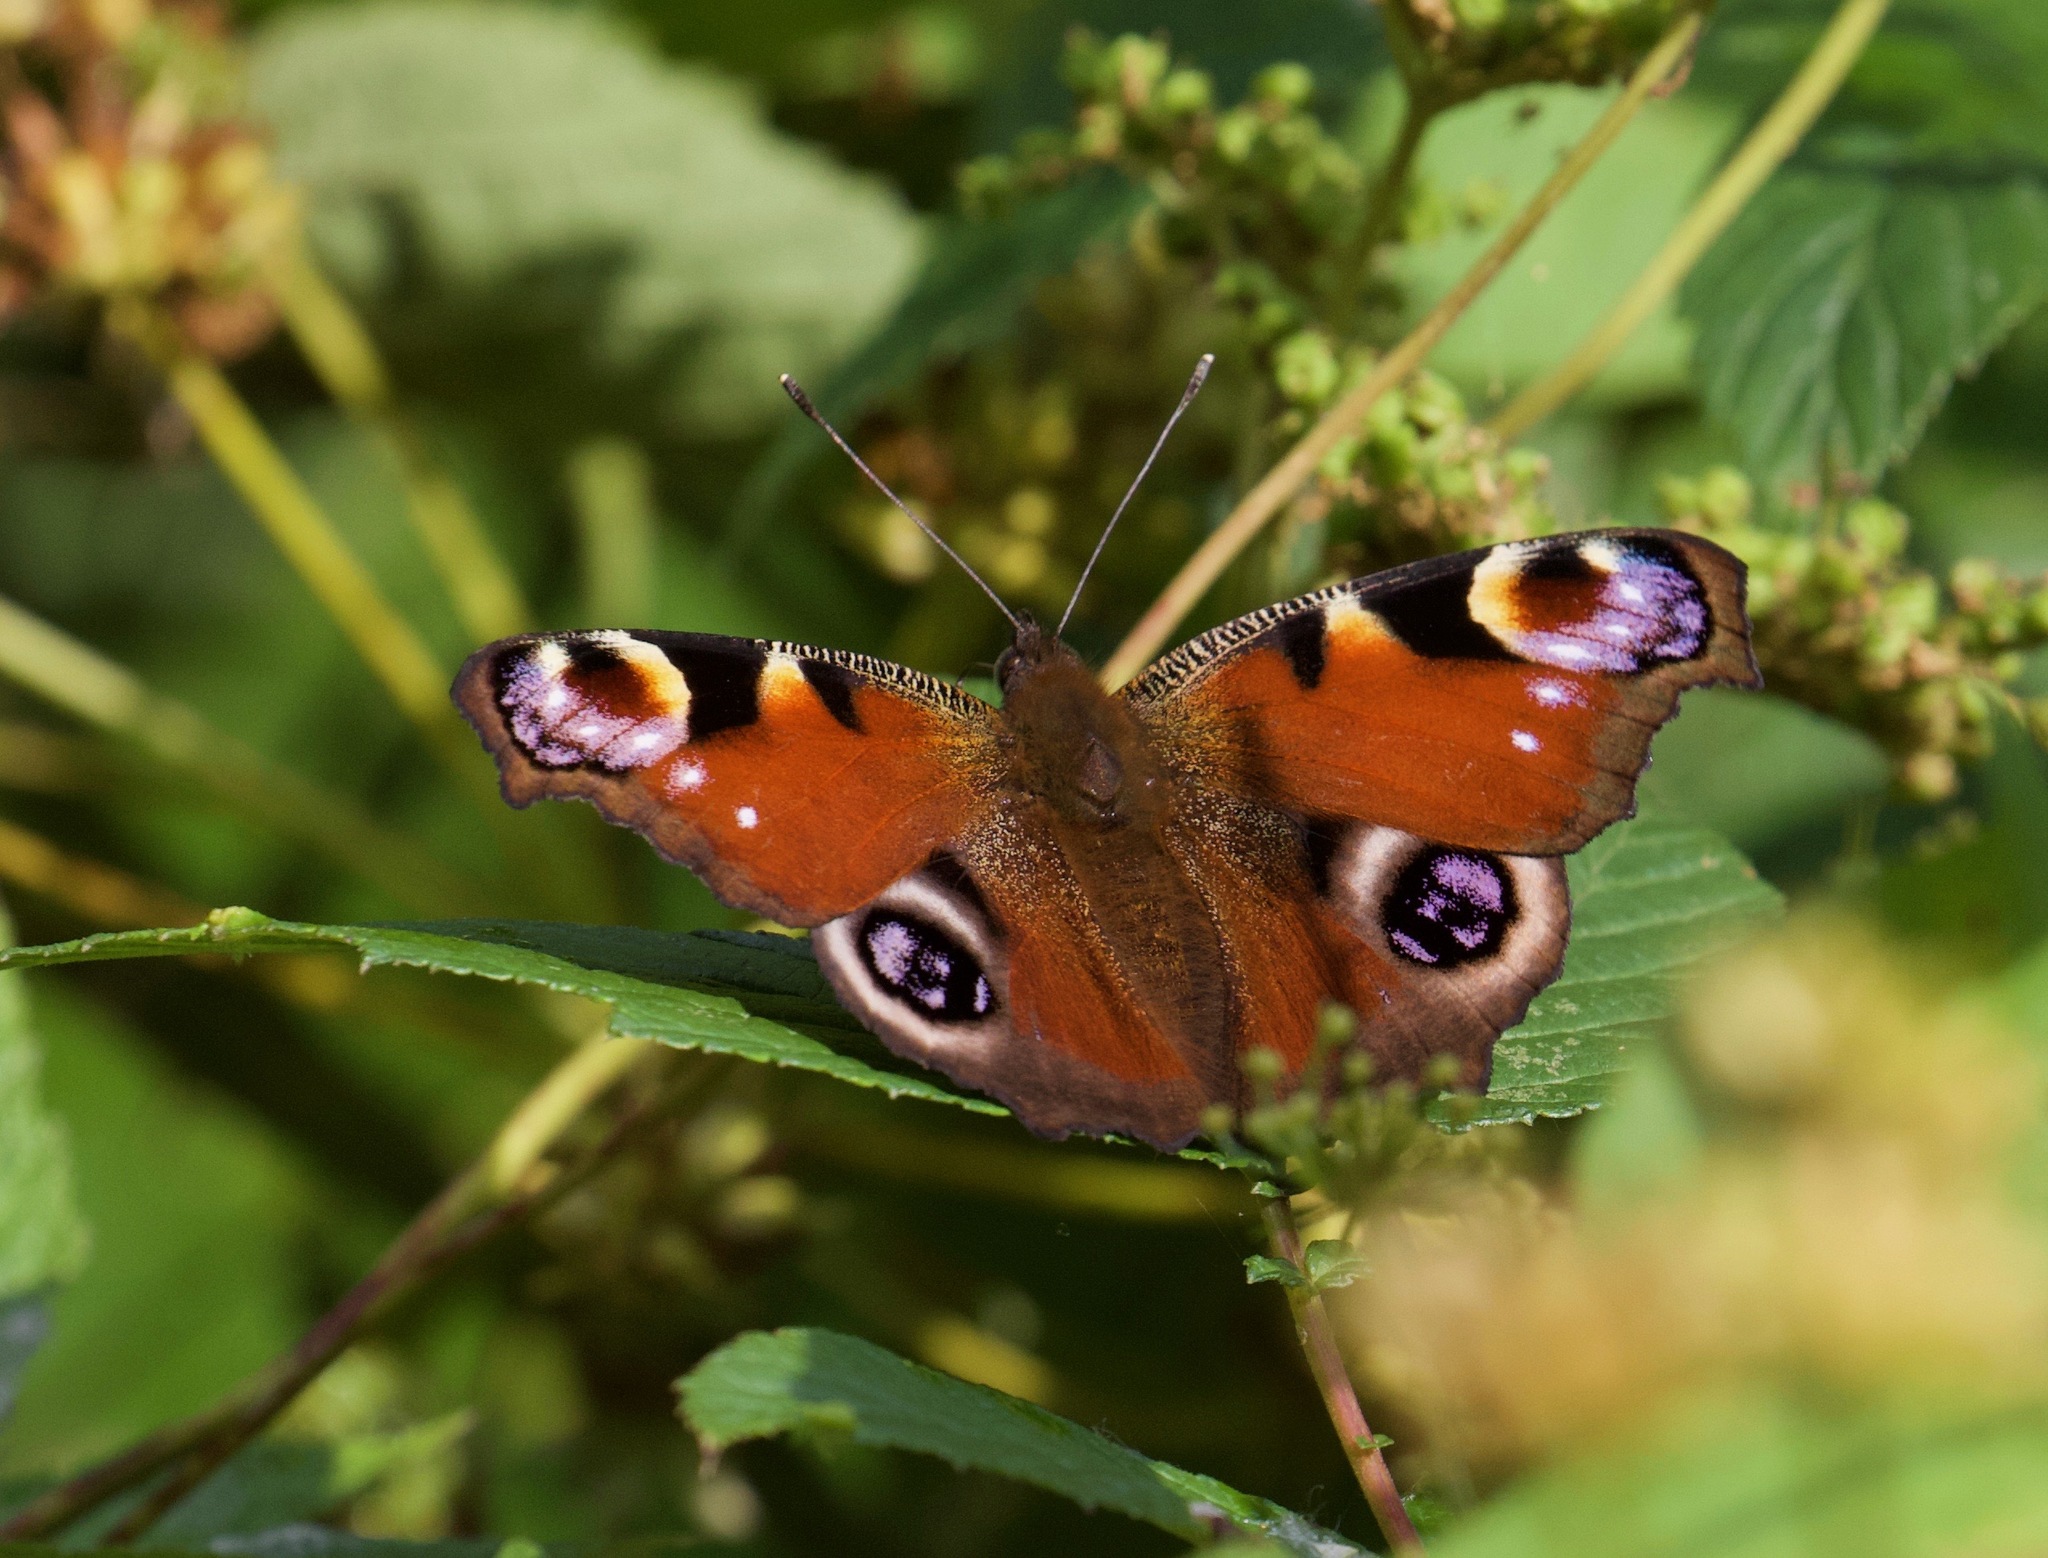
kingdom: Animalia
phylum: Arthropoda
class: Insecta
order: Lepidoptera
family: Nymphalidae
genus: Aglais
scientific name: Aglais io
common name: Peacock
